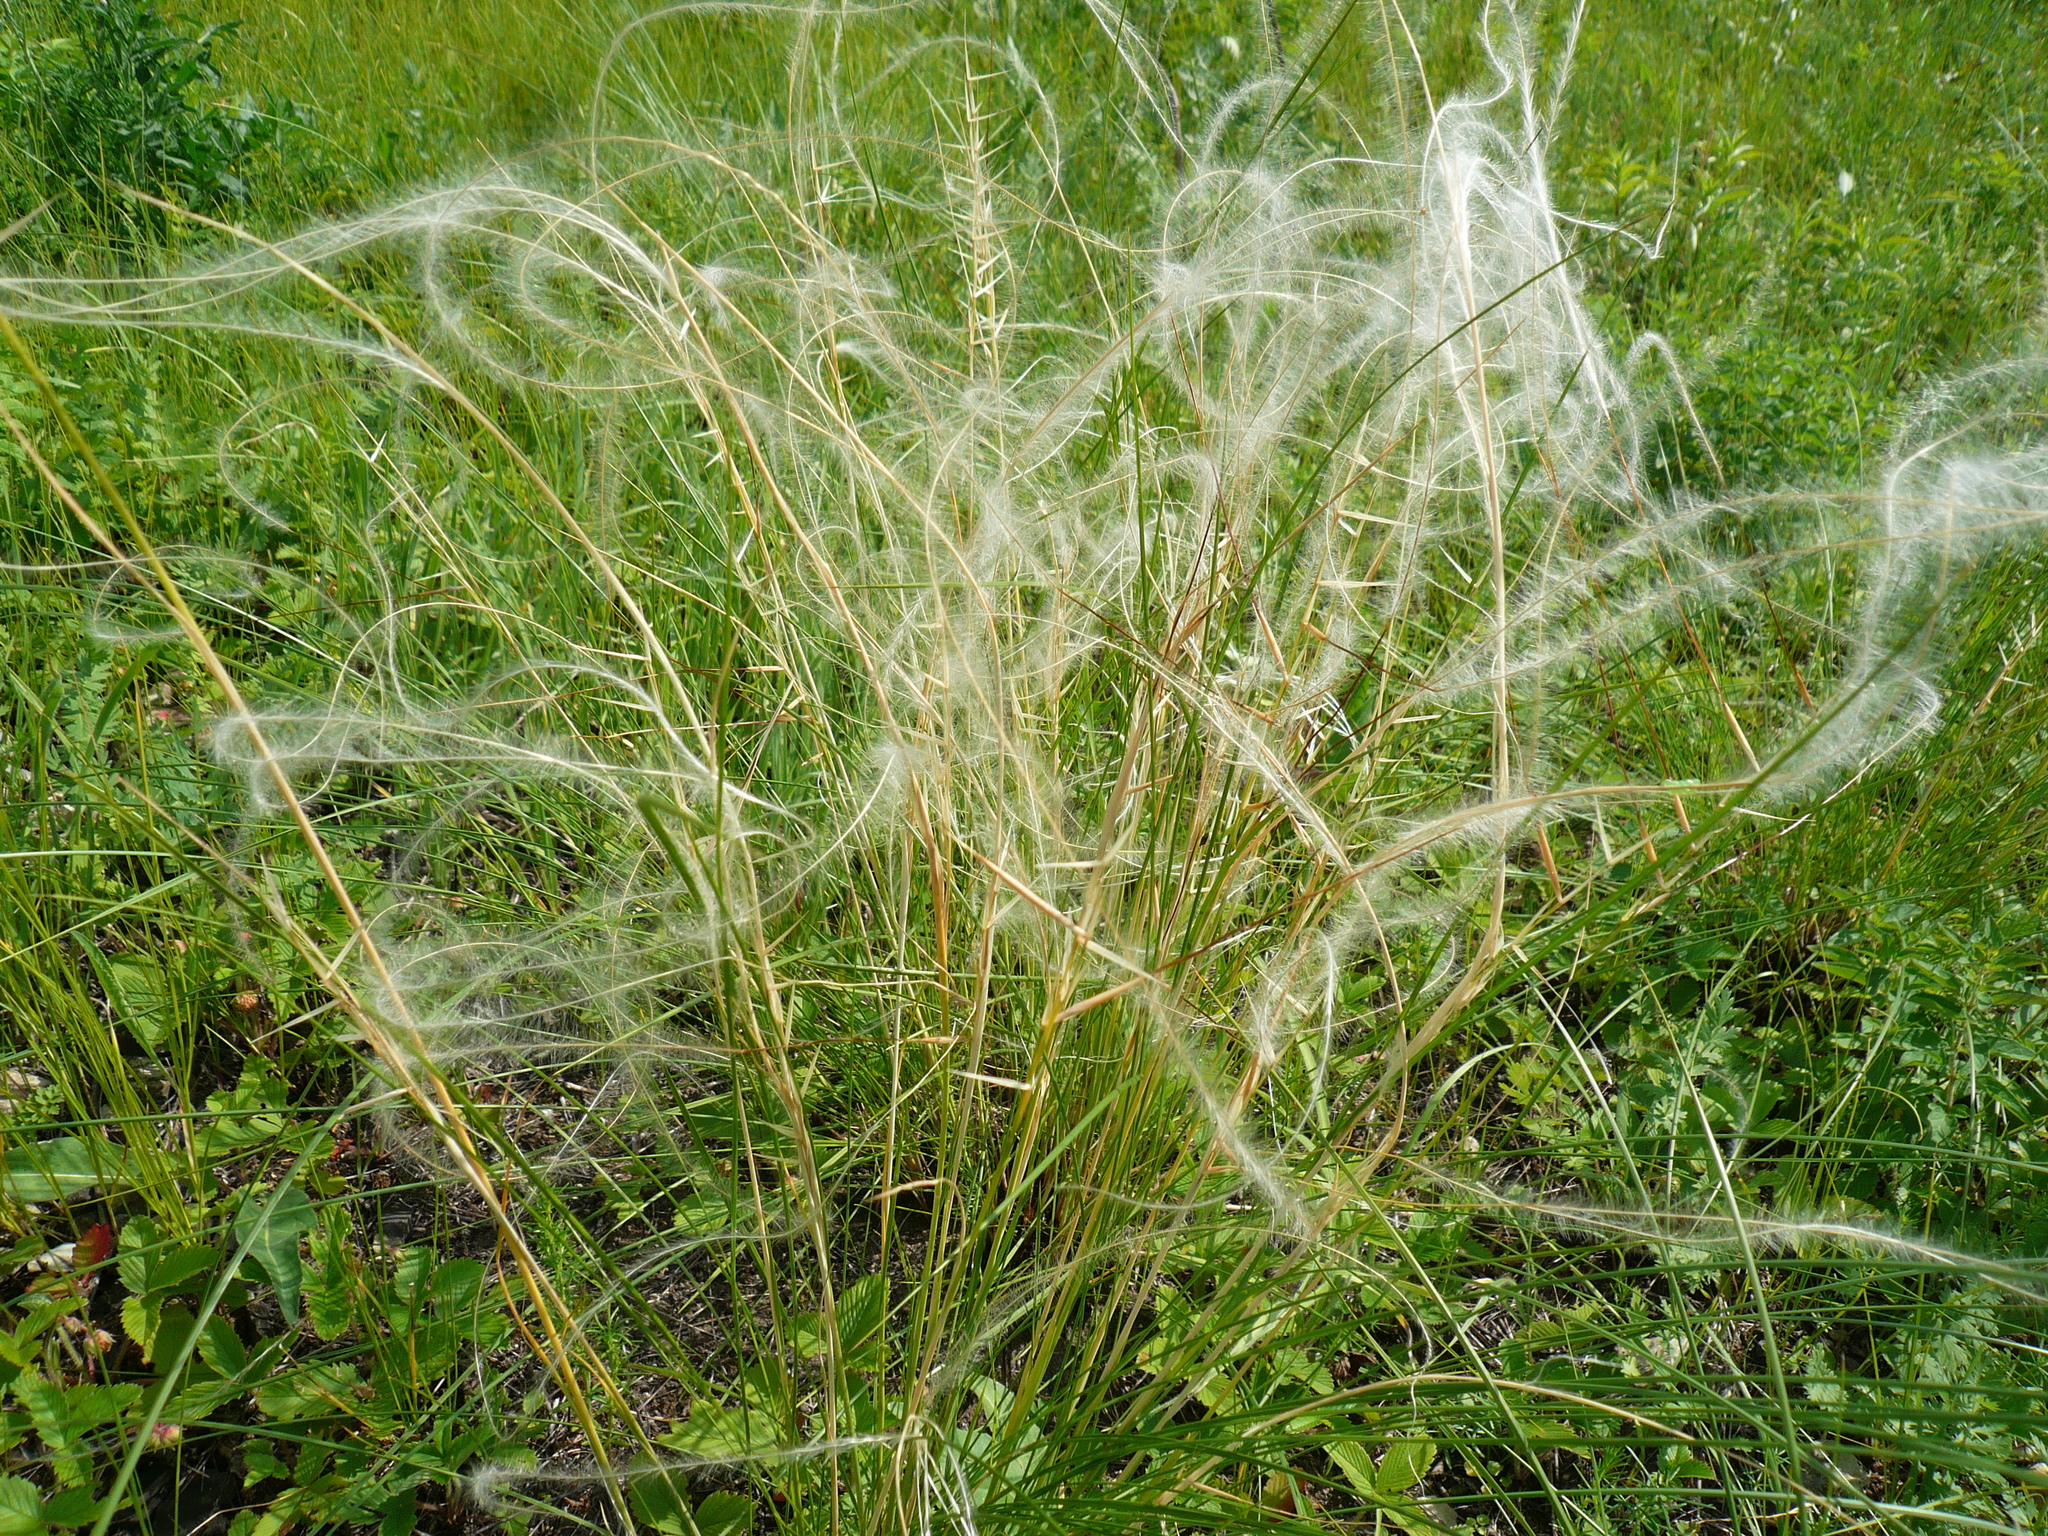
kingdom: Plantae
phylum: Tracheophyta
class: Liliopsida
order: Poales
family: Poaceae
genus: Stipa
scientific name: Stipa pennata
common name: European feather grass
